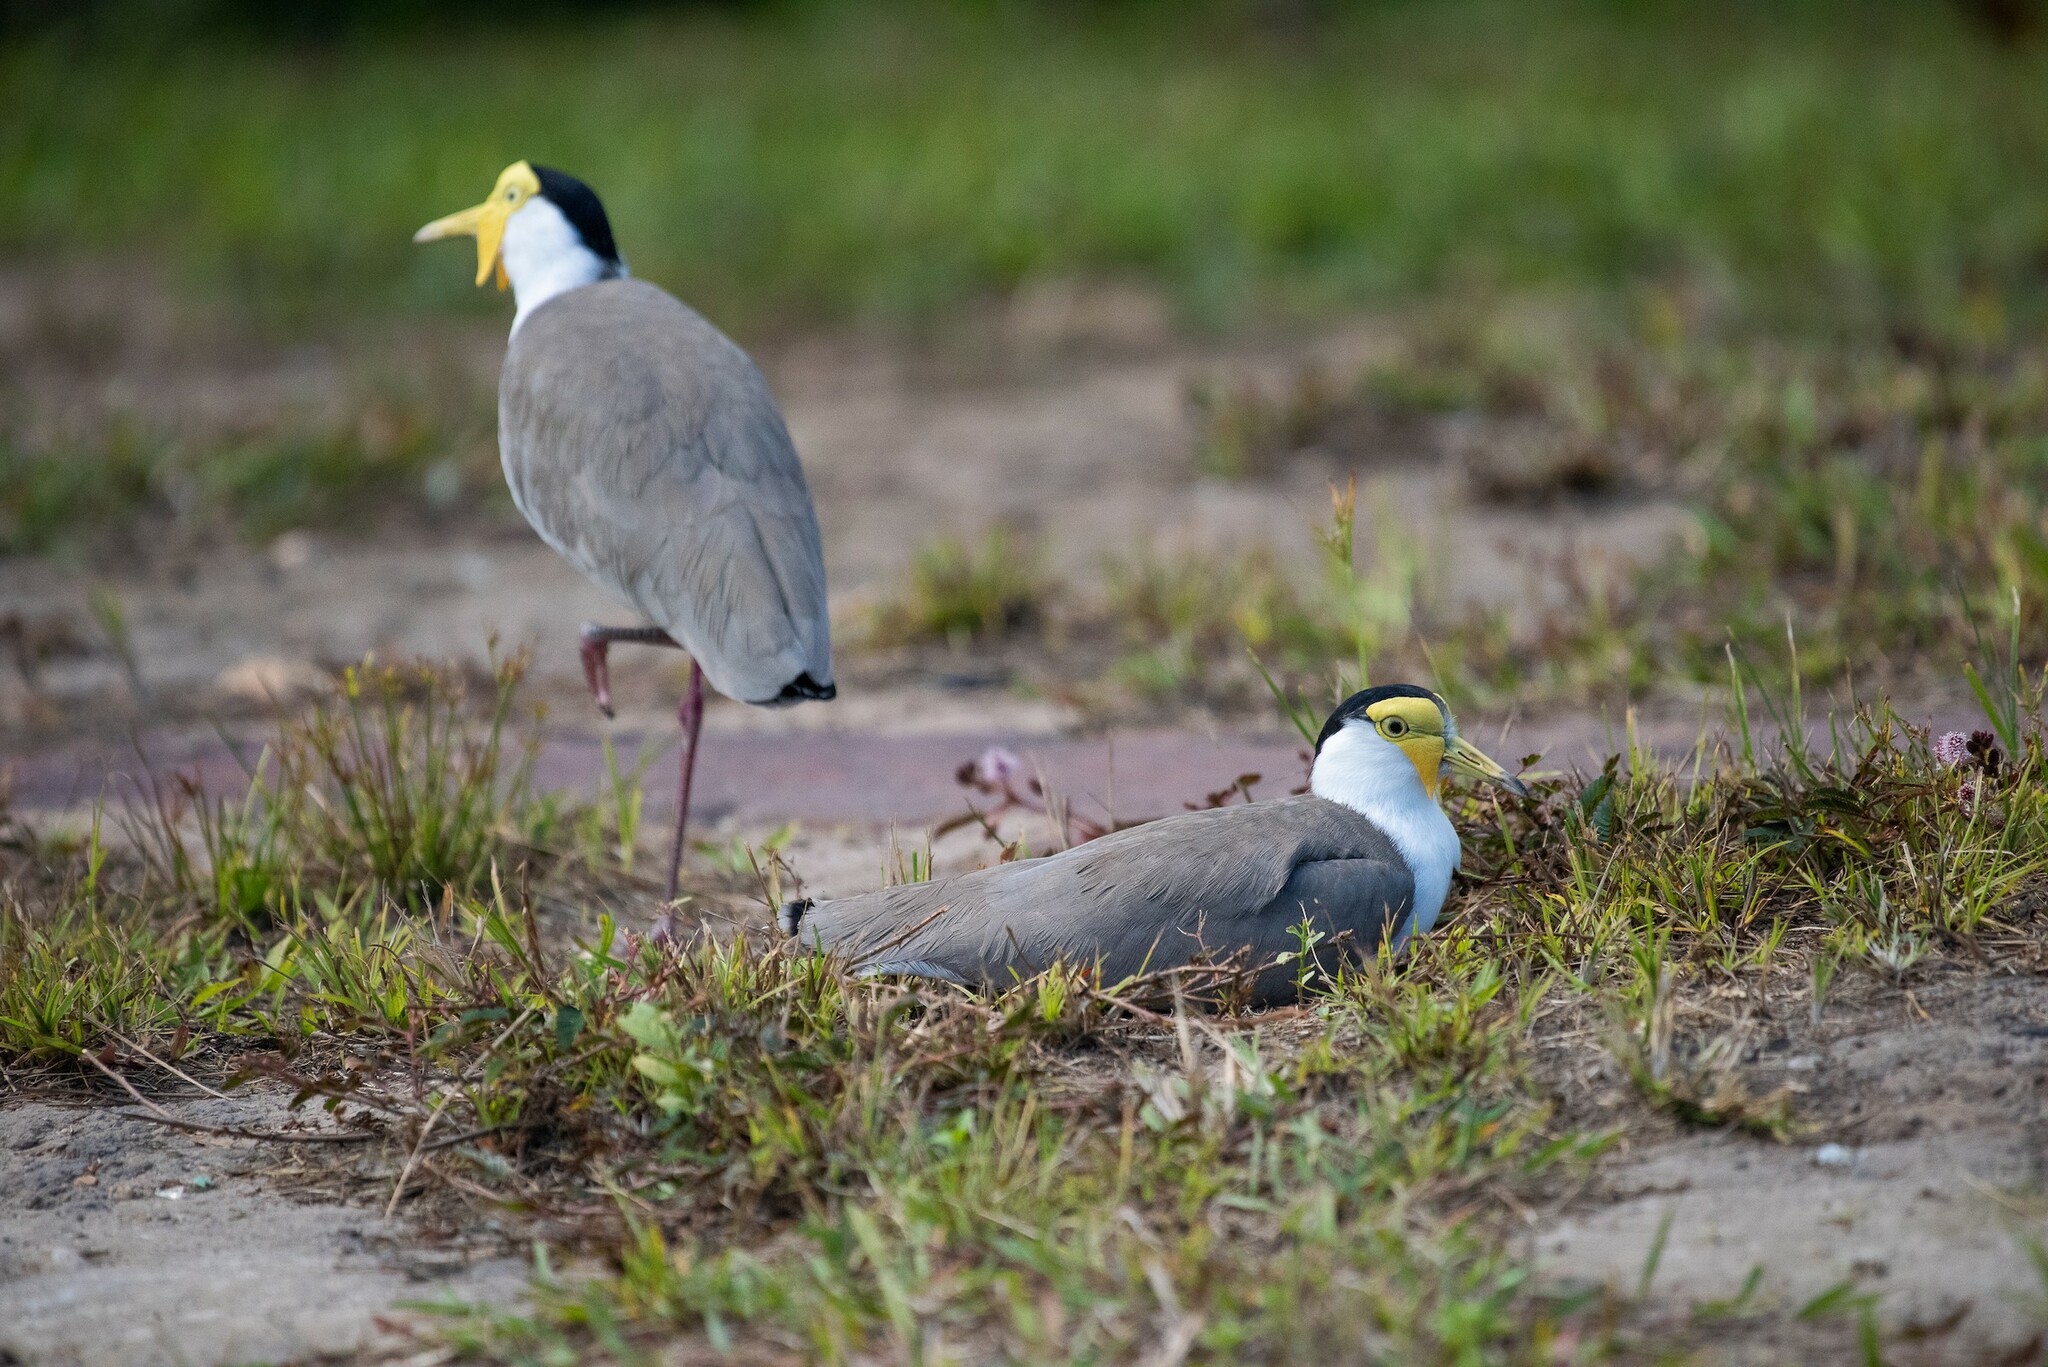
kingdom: Animalia
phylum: Chordata
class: Aves
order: Charadriiformes
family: Charadriidae
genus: Vanellus
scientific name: Vanellus miles
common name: Masked lapwing
